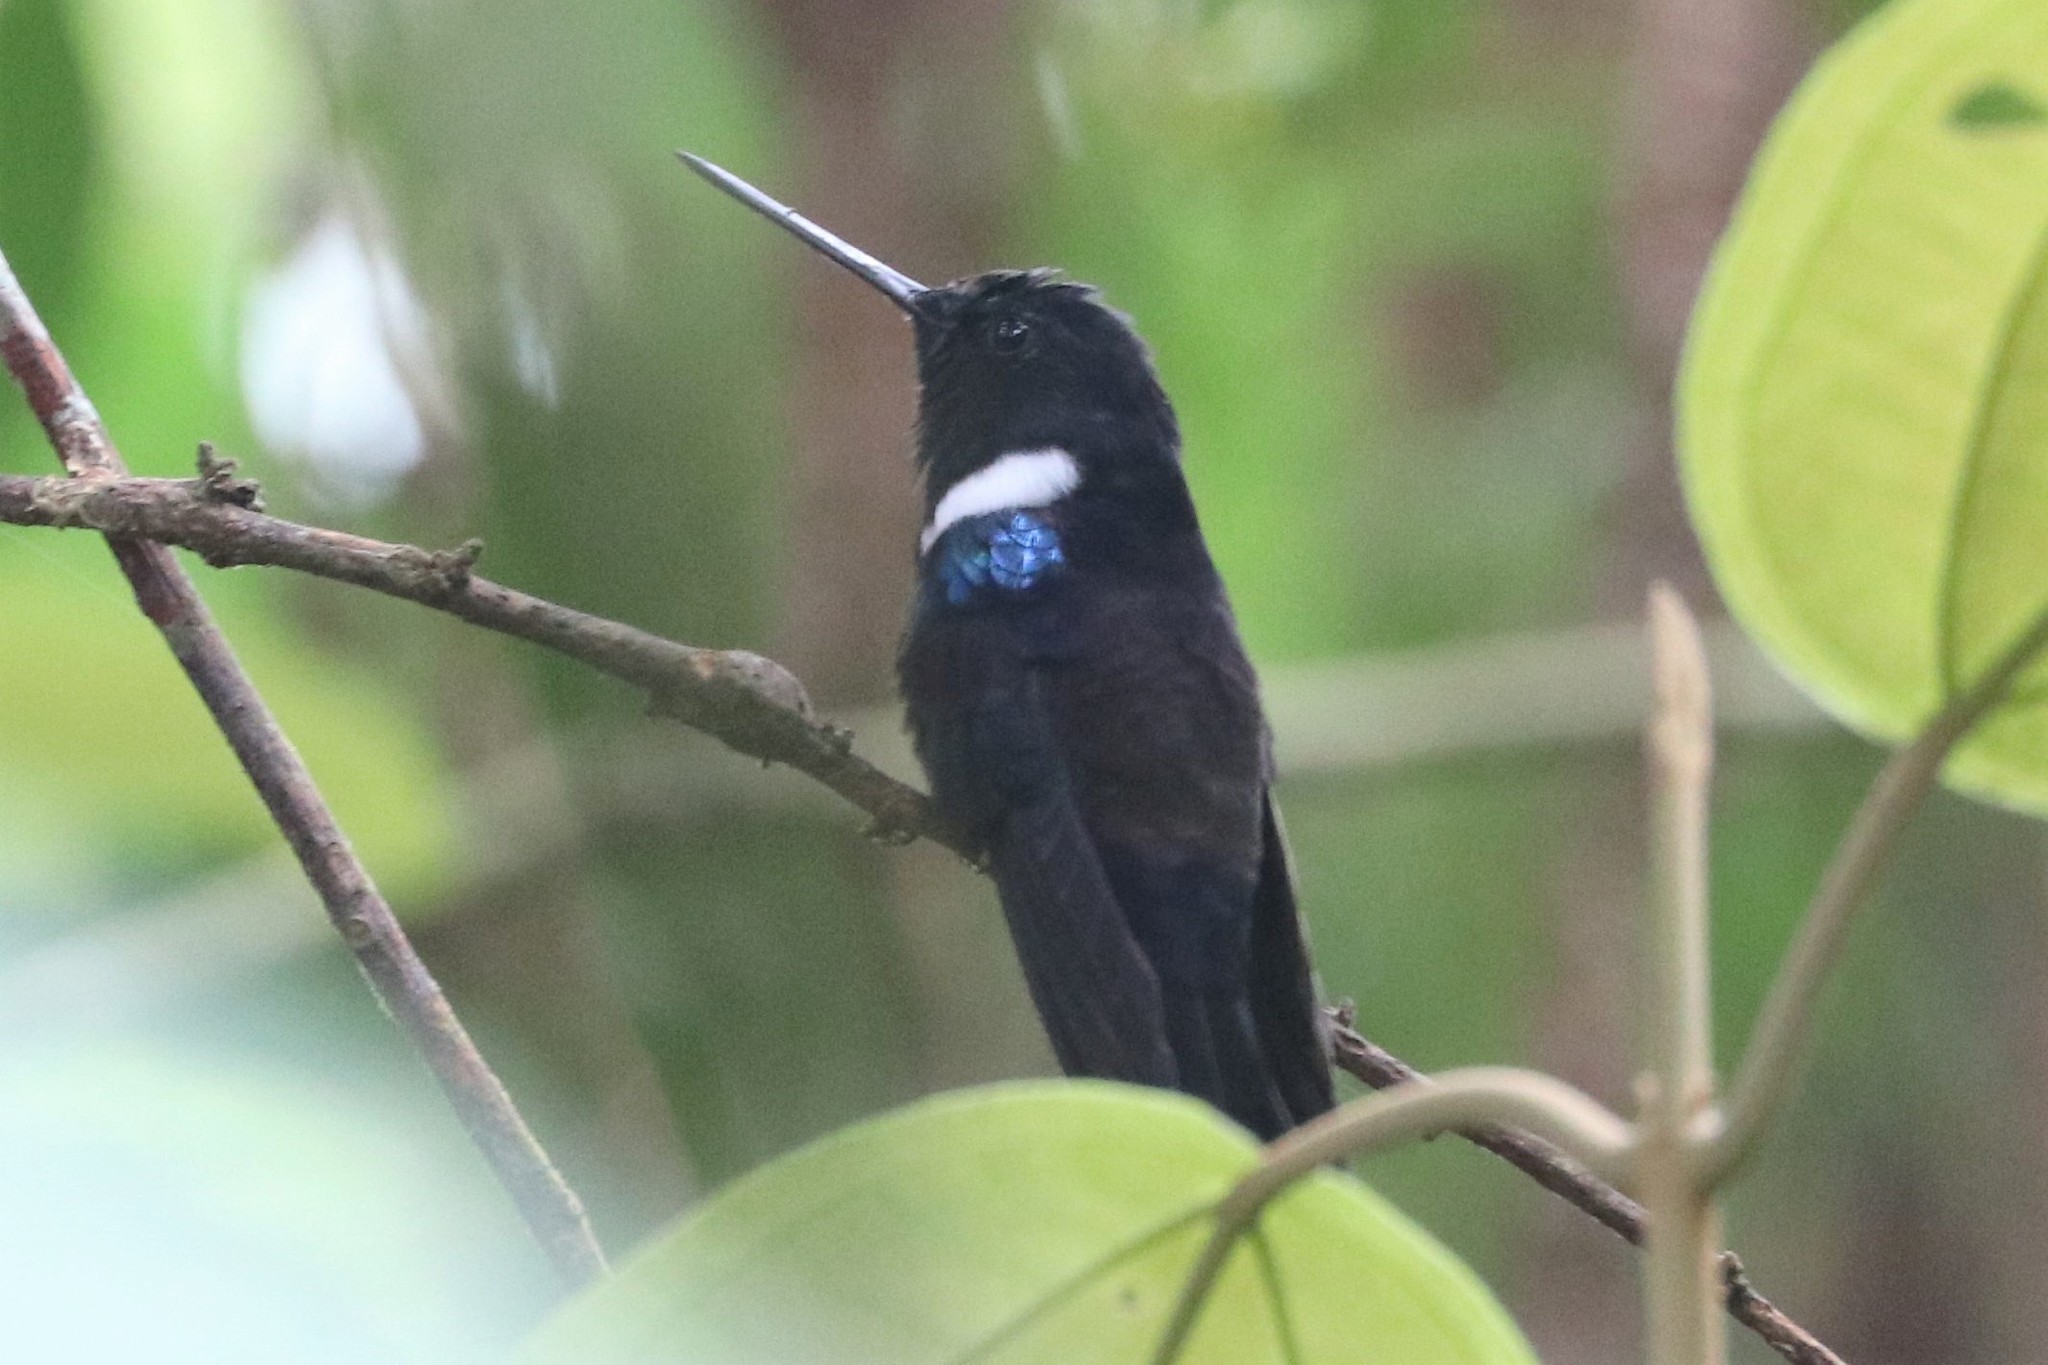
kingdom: Animalia
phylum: Chordata
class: Aves
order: Apodiformes
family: Trochilidae
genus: Coeligena
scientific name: Coeligena prunellei
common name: Black inca
